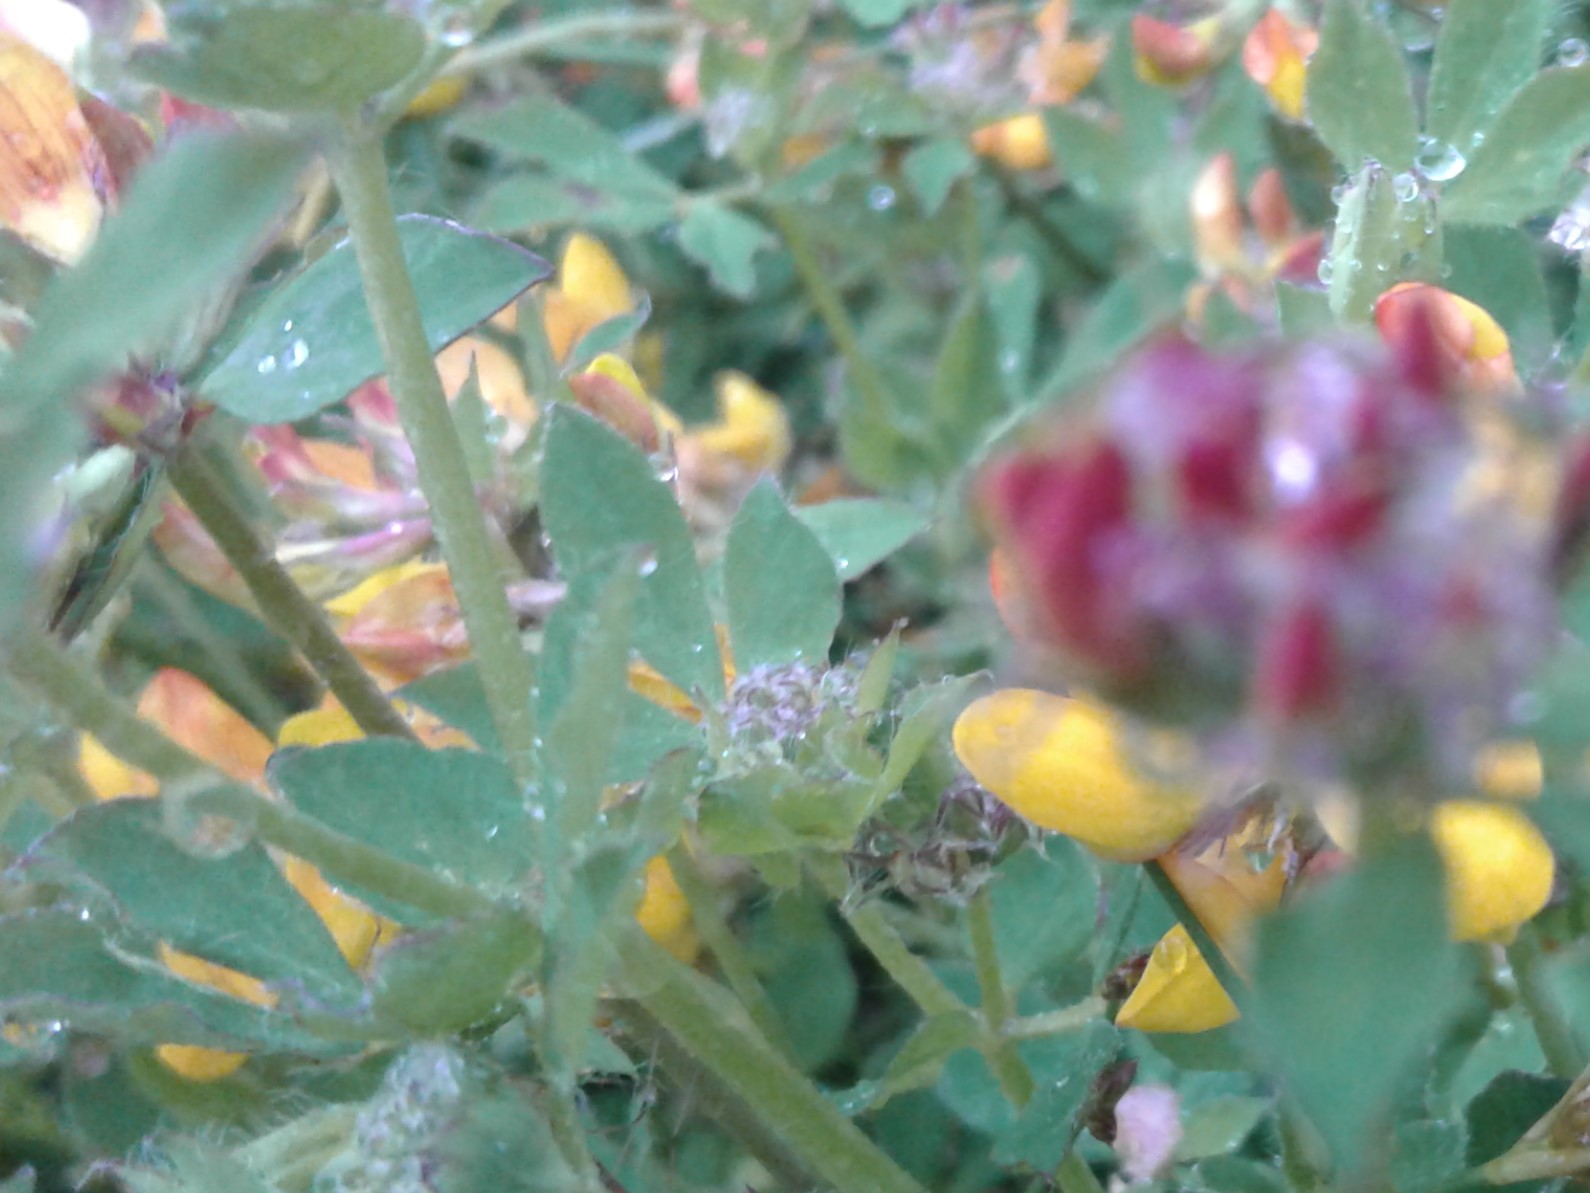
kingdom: Plantae
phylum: Tracheophyta
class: Magnoliopsida
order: Fabales
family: Fabaceae
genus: Lotus
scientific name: Lotus pedunculatus
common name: Greater birdsfoot-trefoil
